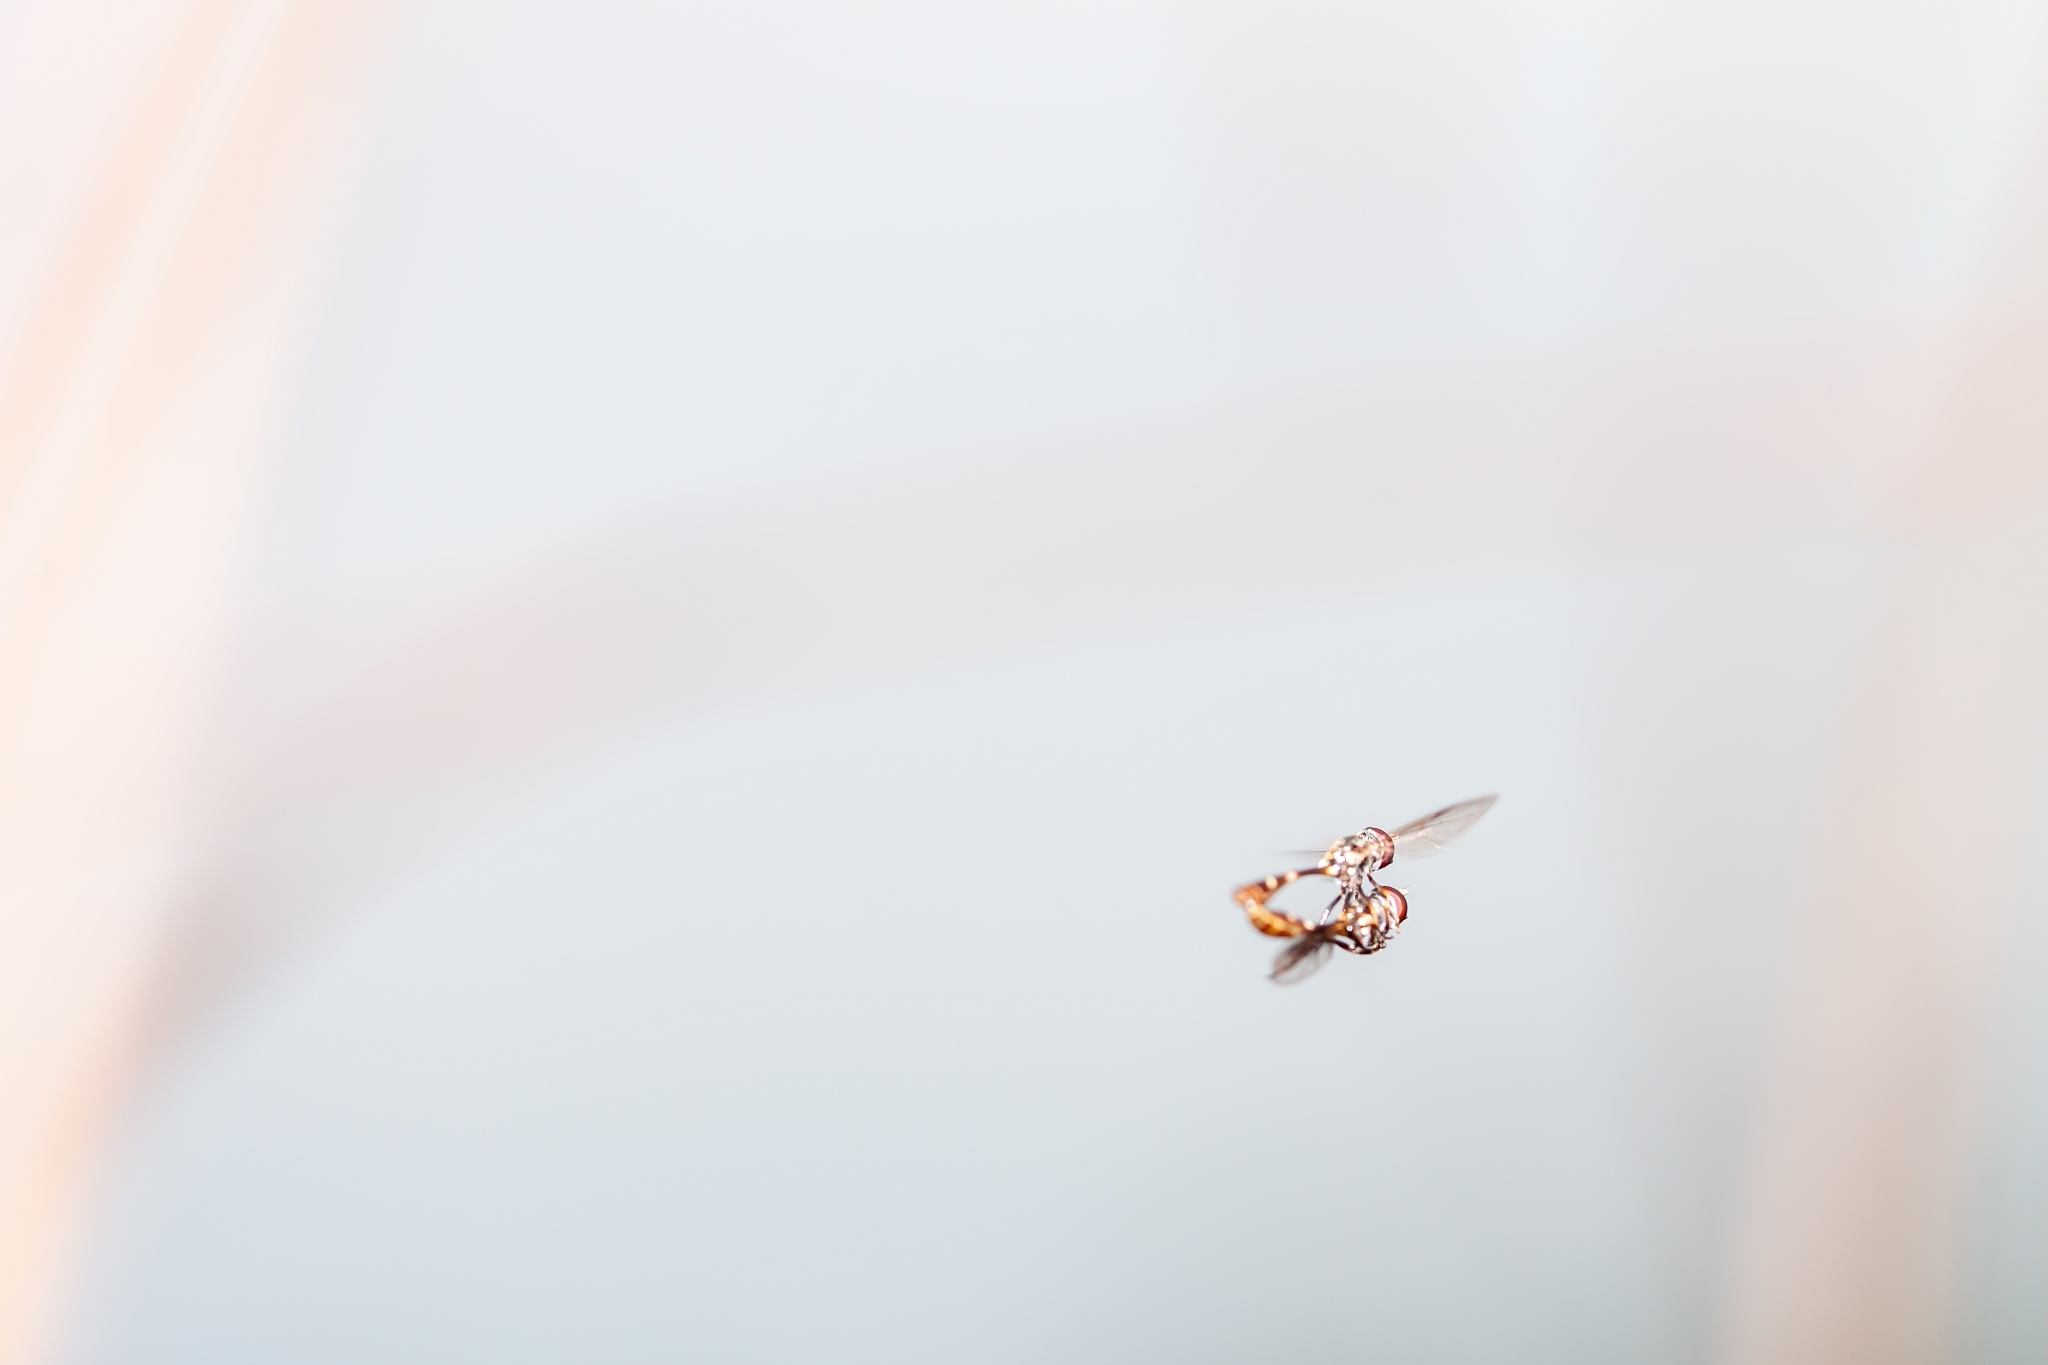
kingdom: Animalia
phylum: Arthropoda
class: Insecta
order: Diptera
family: Syrphidae
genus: Dioprosopa
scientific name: Dioprosopa clavatus
